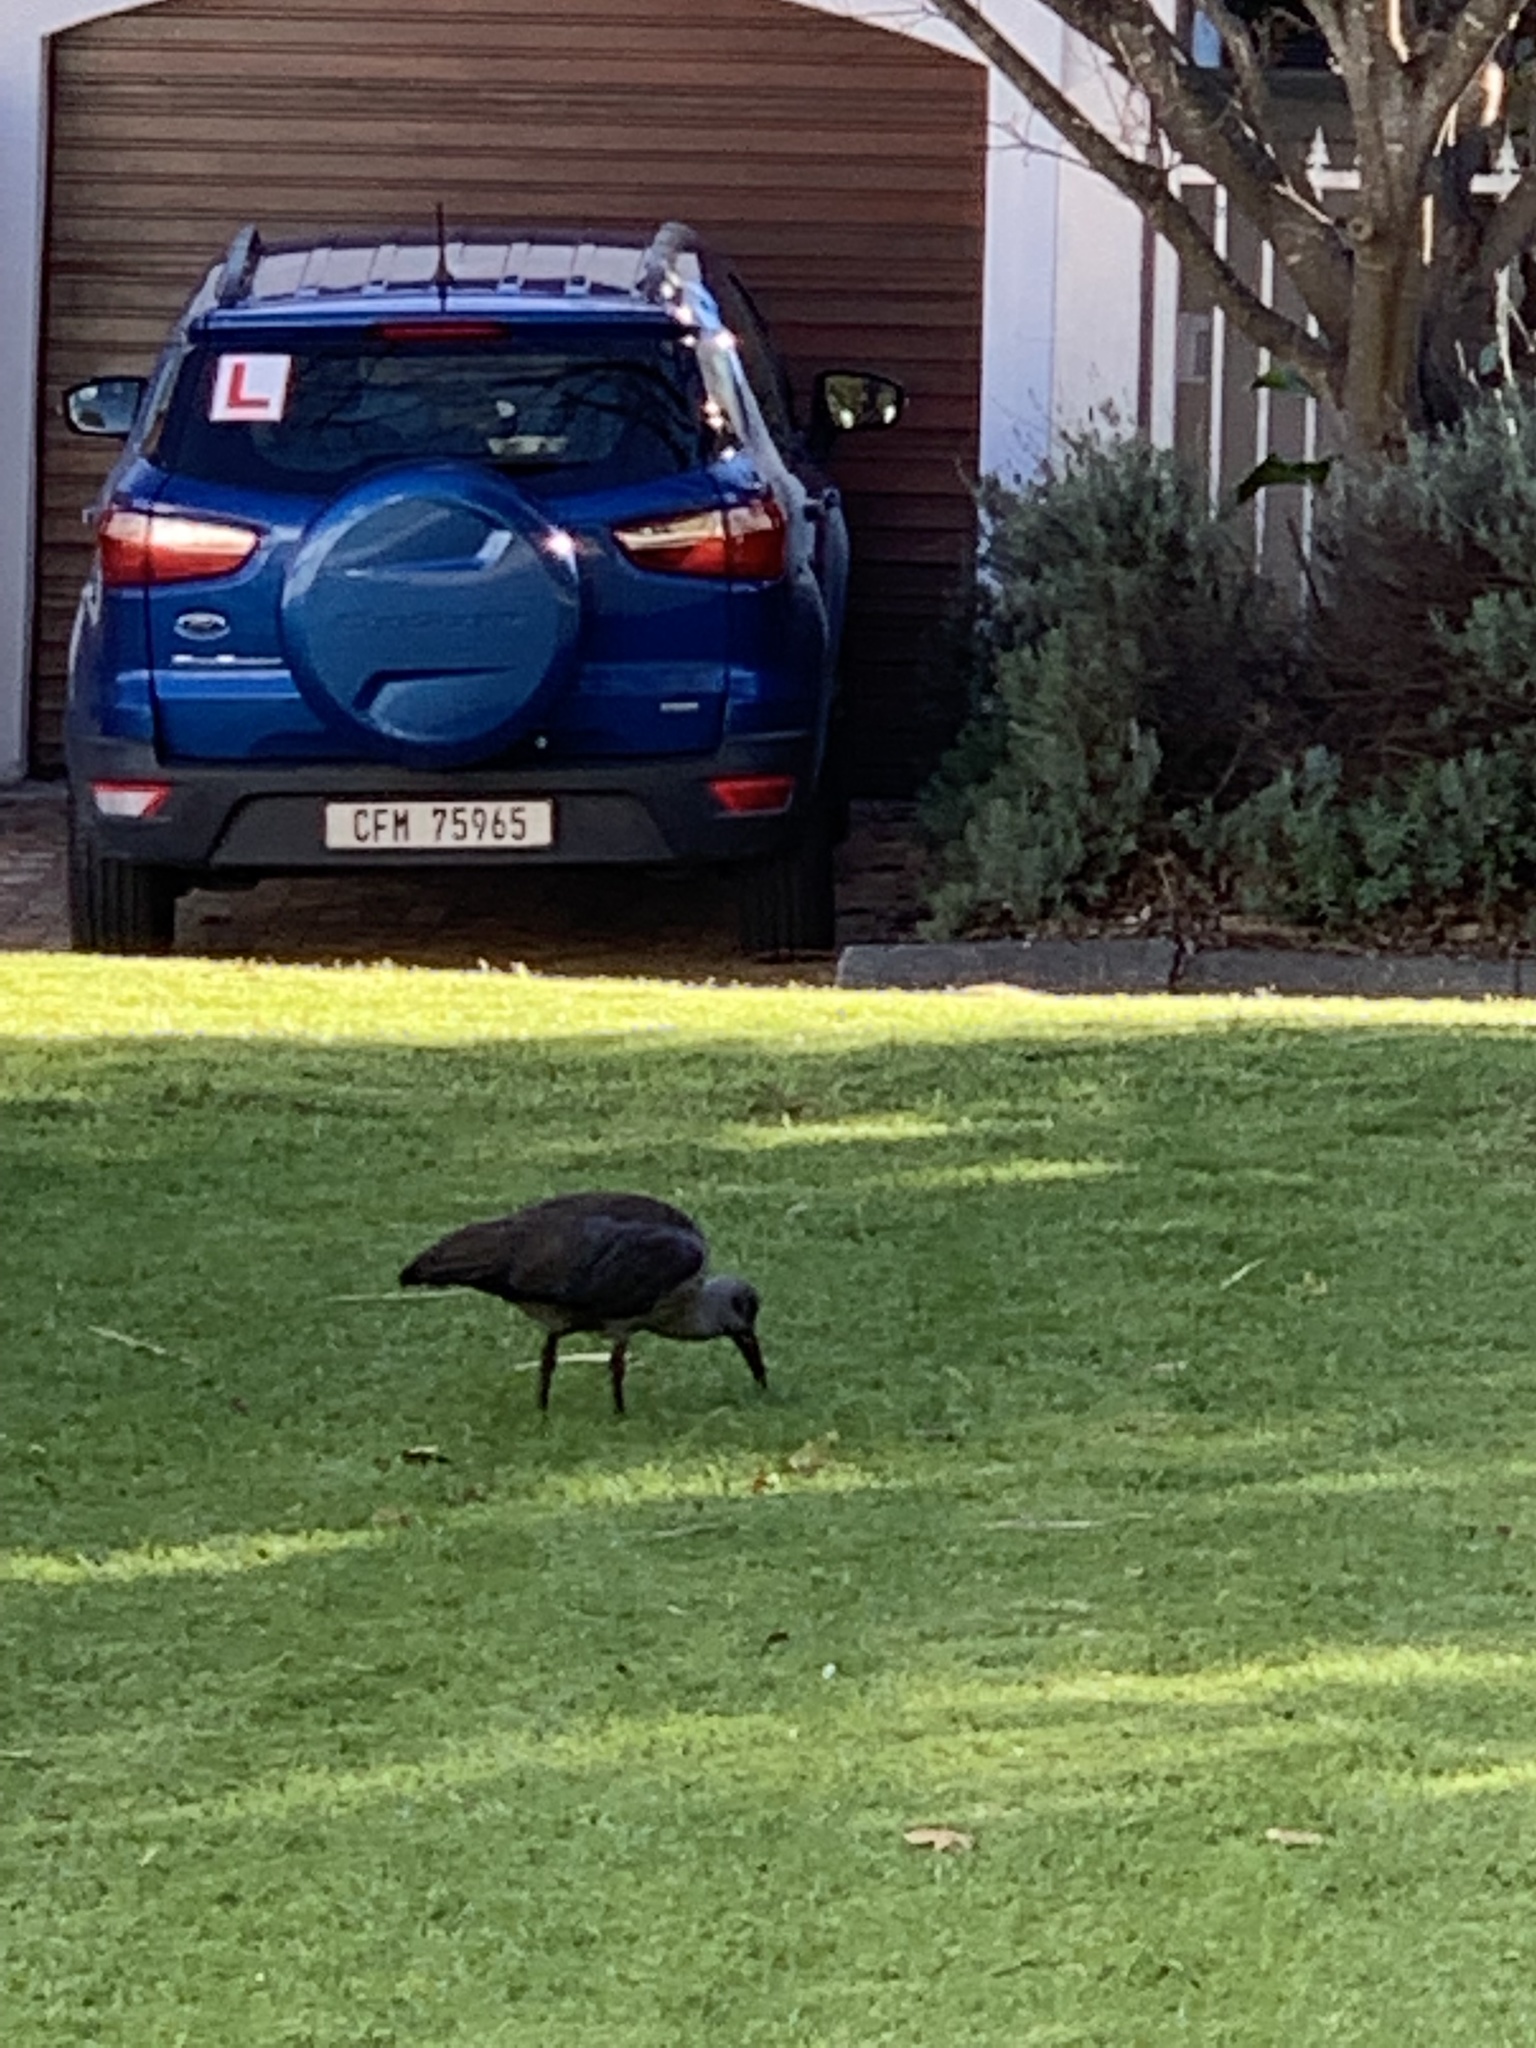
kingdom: Animalia
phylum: Chordata
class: Aves
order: Pelecaniformes
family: Threskiornithidae
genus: Bostrychia
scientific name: Bostrychia hagedash
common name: Hadada ibis
